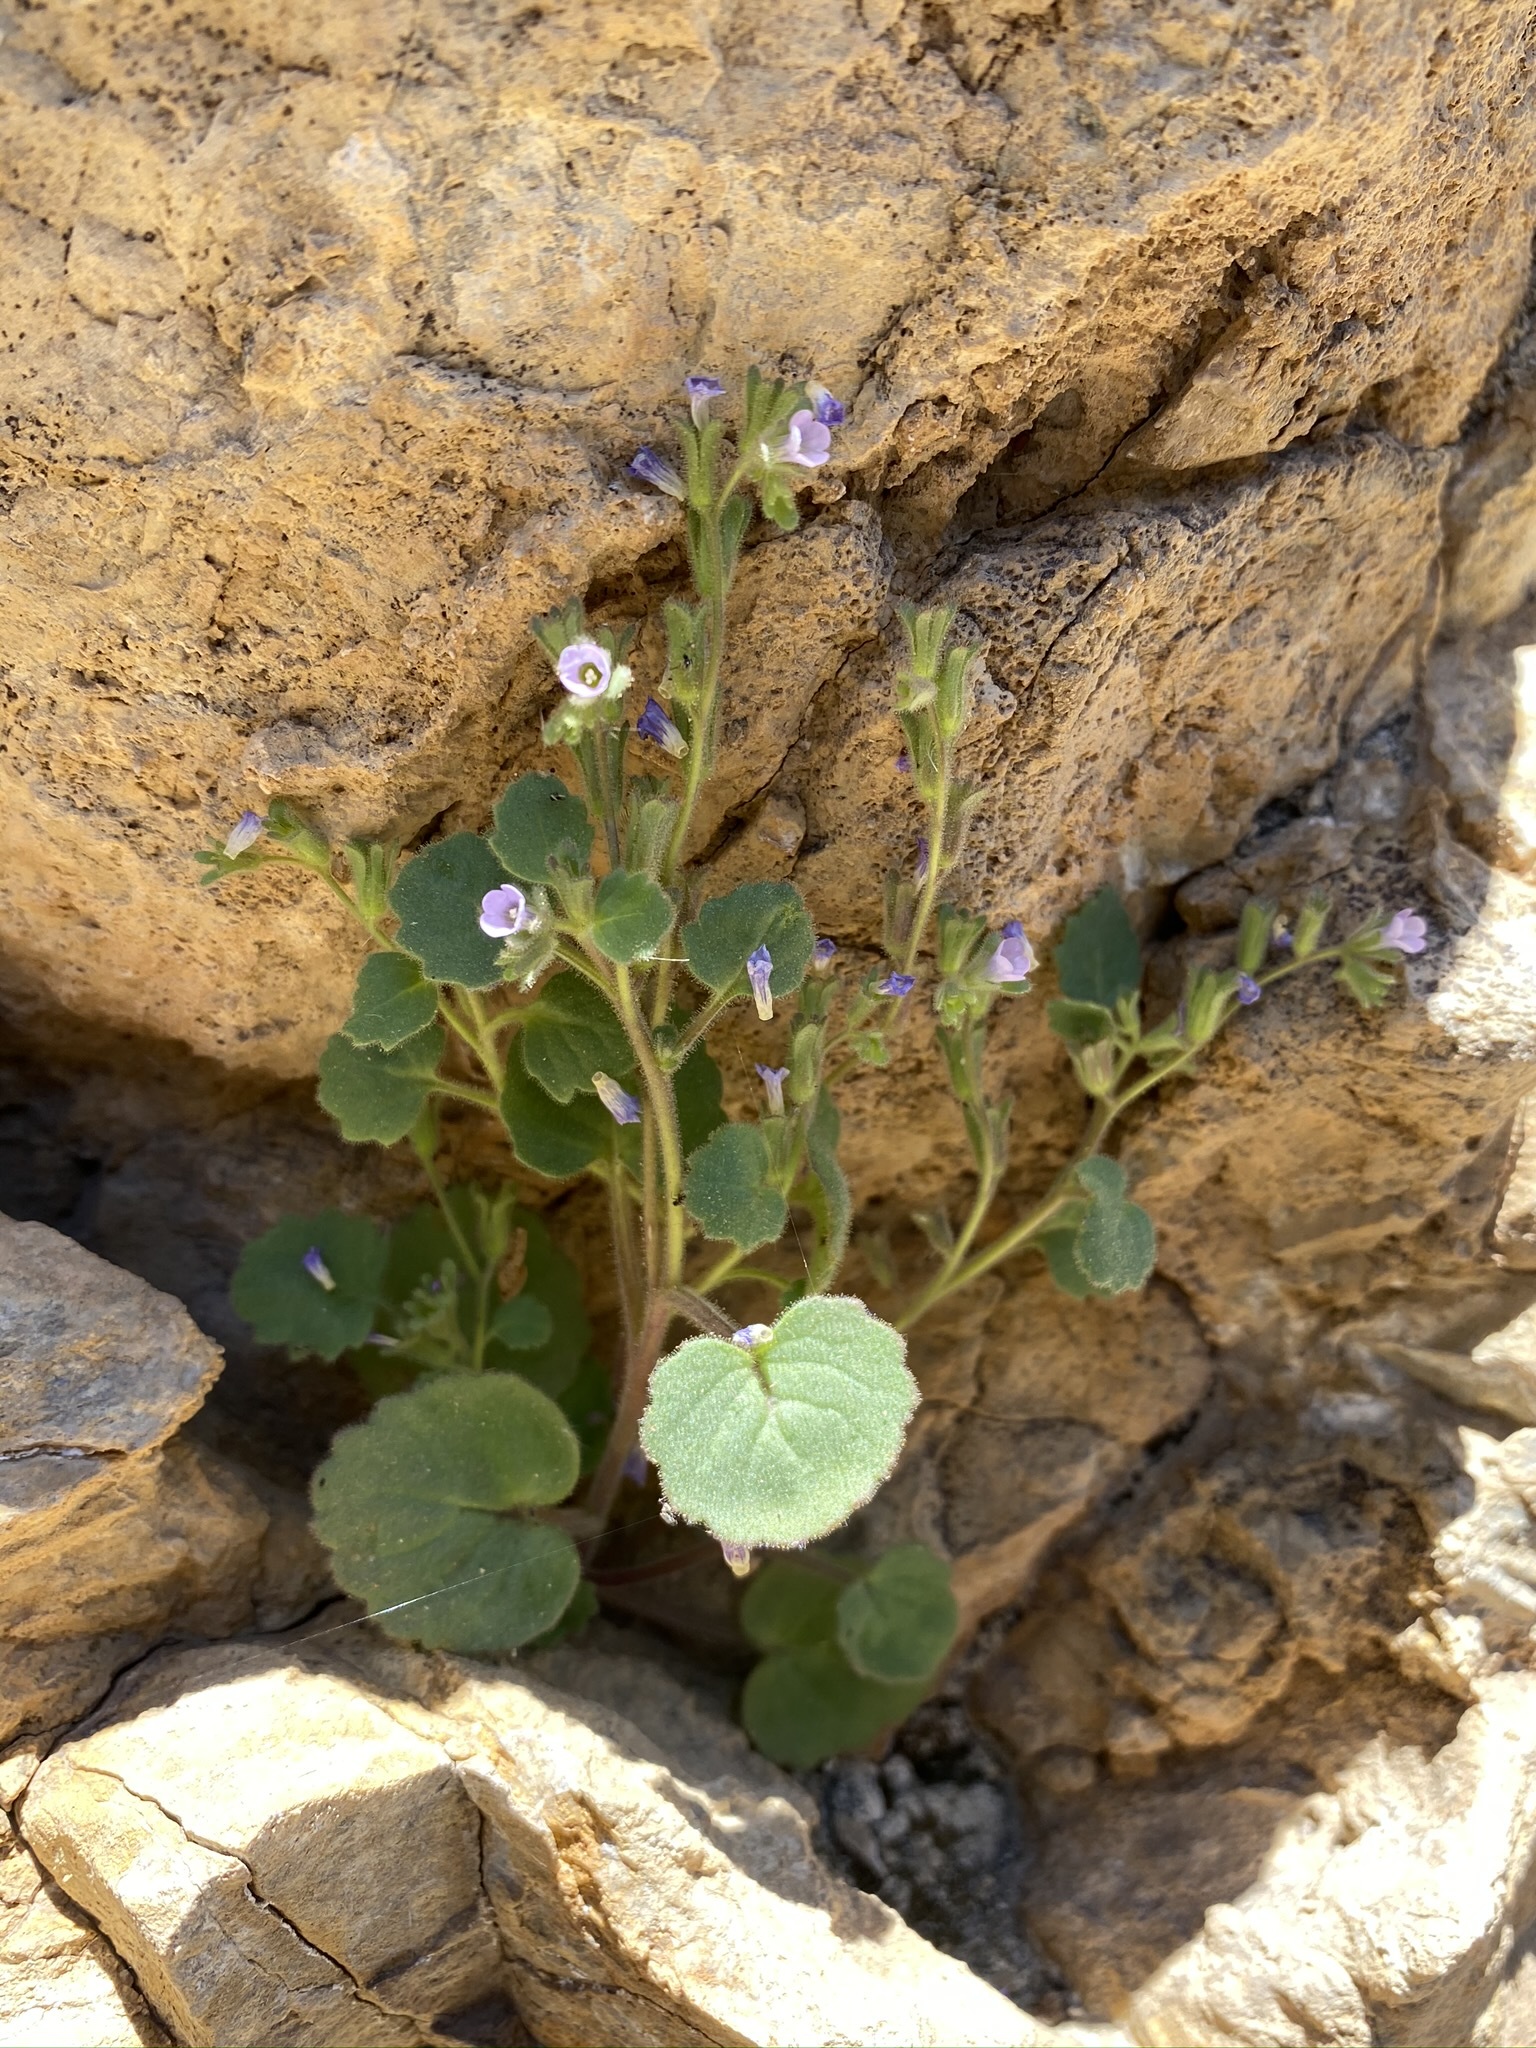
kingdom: Plantae
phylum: Tracheophyta
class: Magnoliopsida
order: Boraginales
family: Hydrophyllaceae
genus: Phacelia
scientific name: Phacelia mustelina
